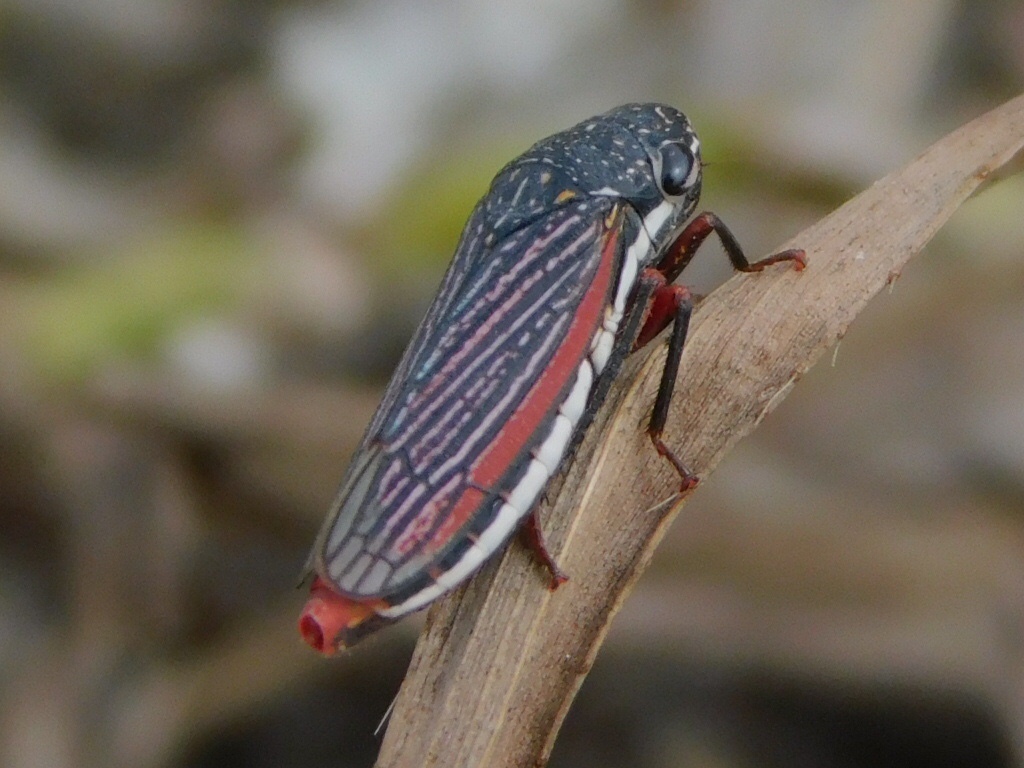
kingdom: Animalia
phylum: Arthropoda
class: Insecta
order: Hemiptera
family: Cicadellidae
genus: Cuerna
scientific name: Cuerna costalis
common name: Lateral-lined sharpshooter
